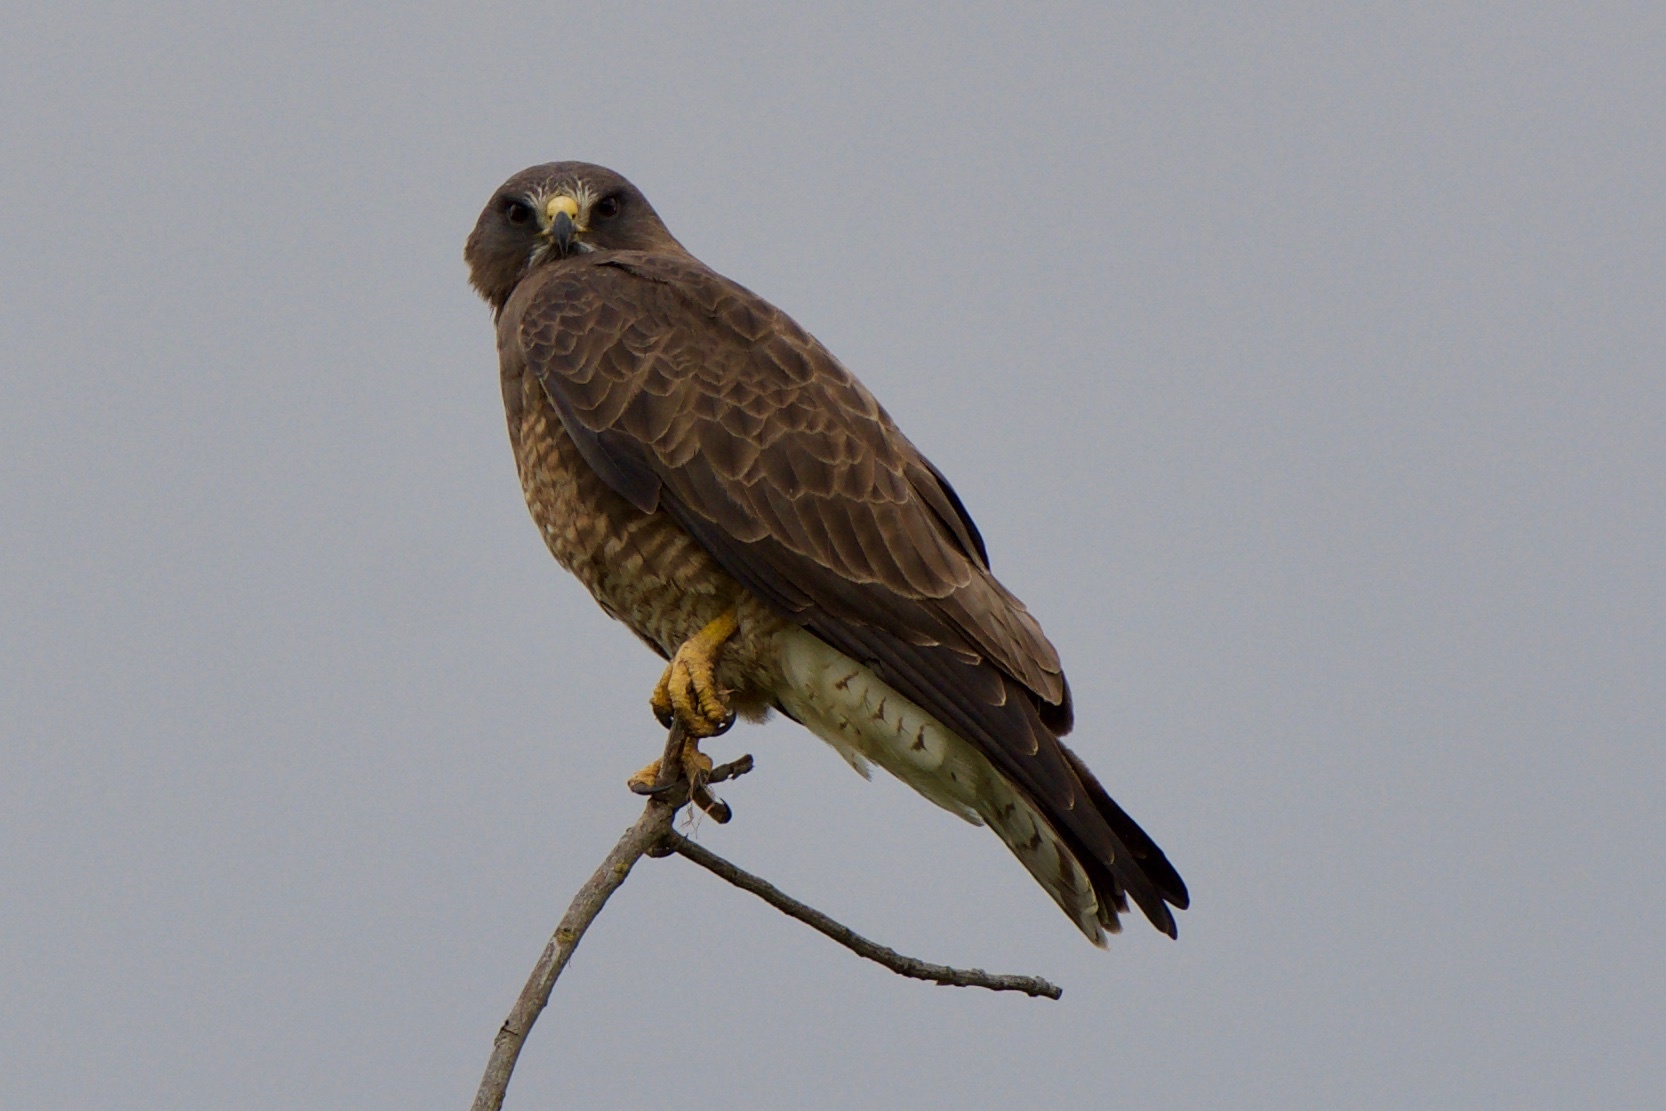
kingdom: Animalia
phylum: Chordata
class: Aves
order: Accipitriformes
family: Accipitridae
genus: Buteo
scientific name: Buteo swainsoni
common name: Swainson's hawk
